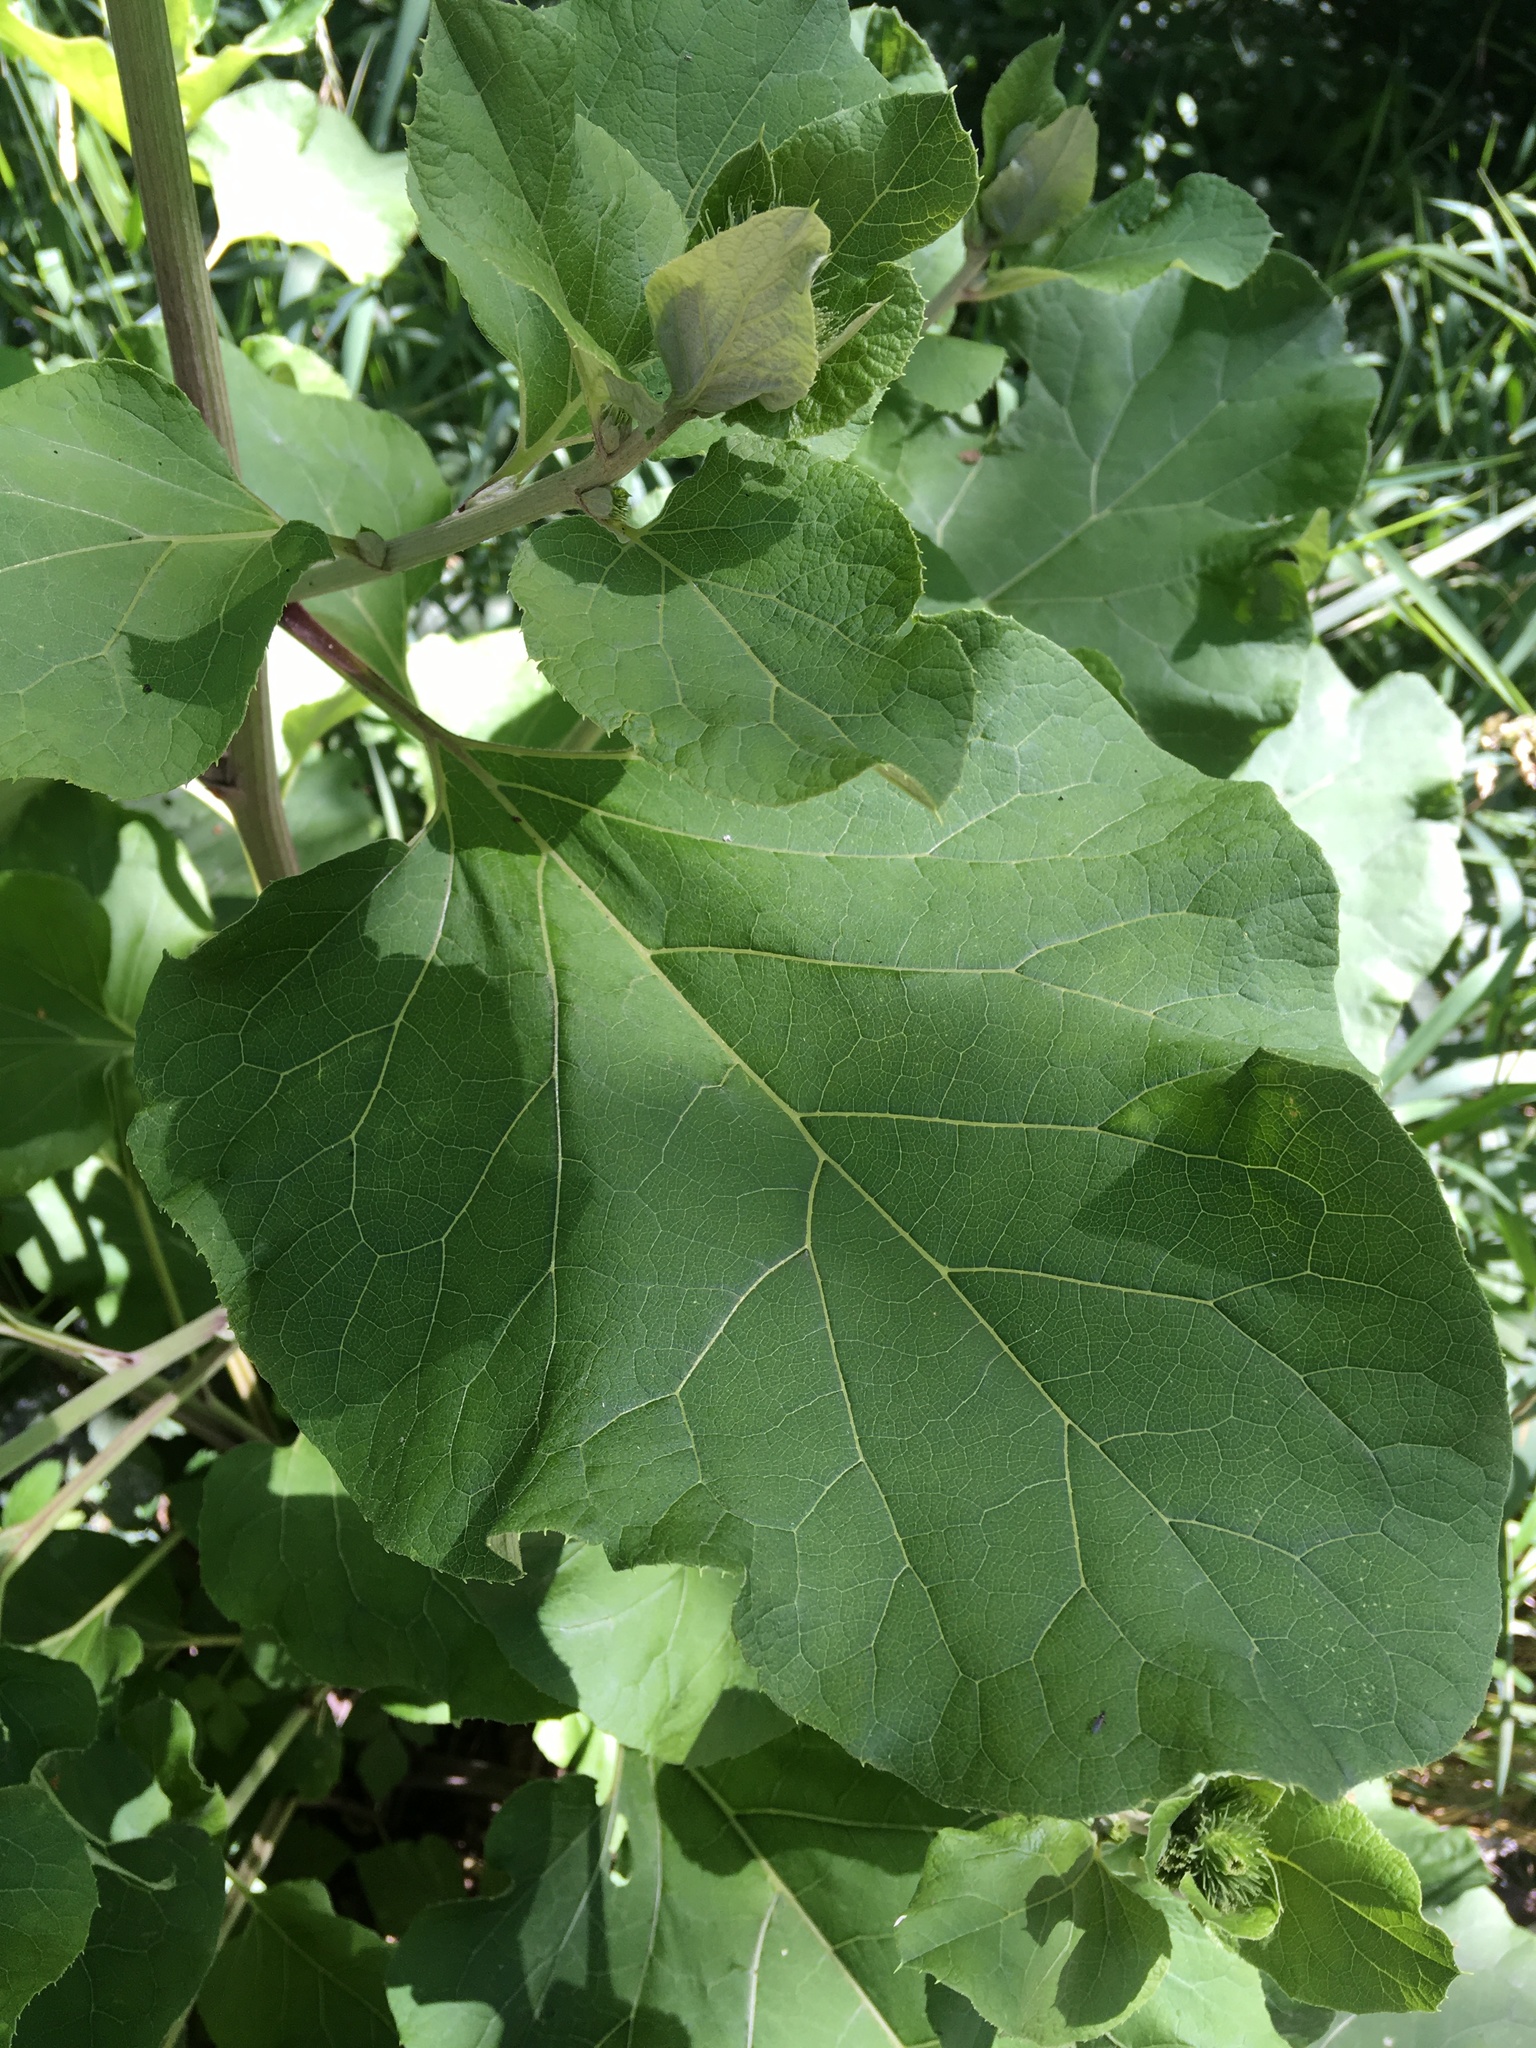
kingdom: Plantae
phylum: Tracheophyta
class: Magnoliopsida
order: Asterales
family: Asteraceae
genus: Arctium
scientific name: Arctium lappa
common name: Greater burdock
